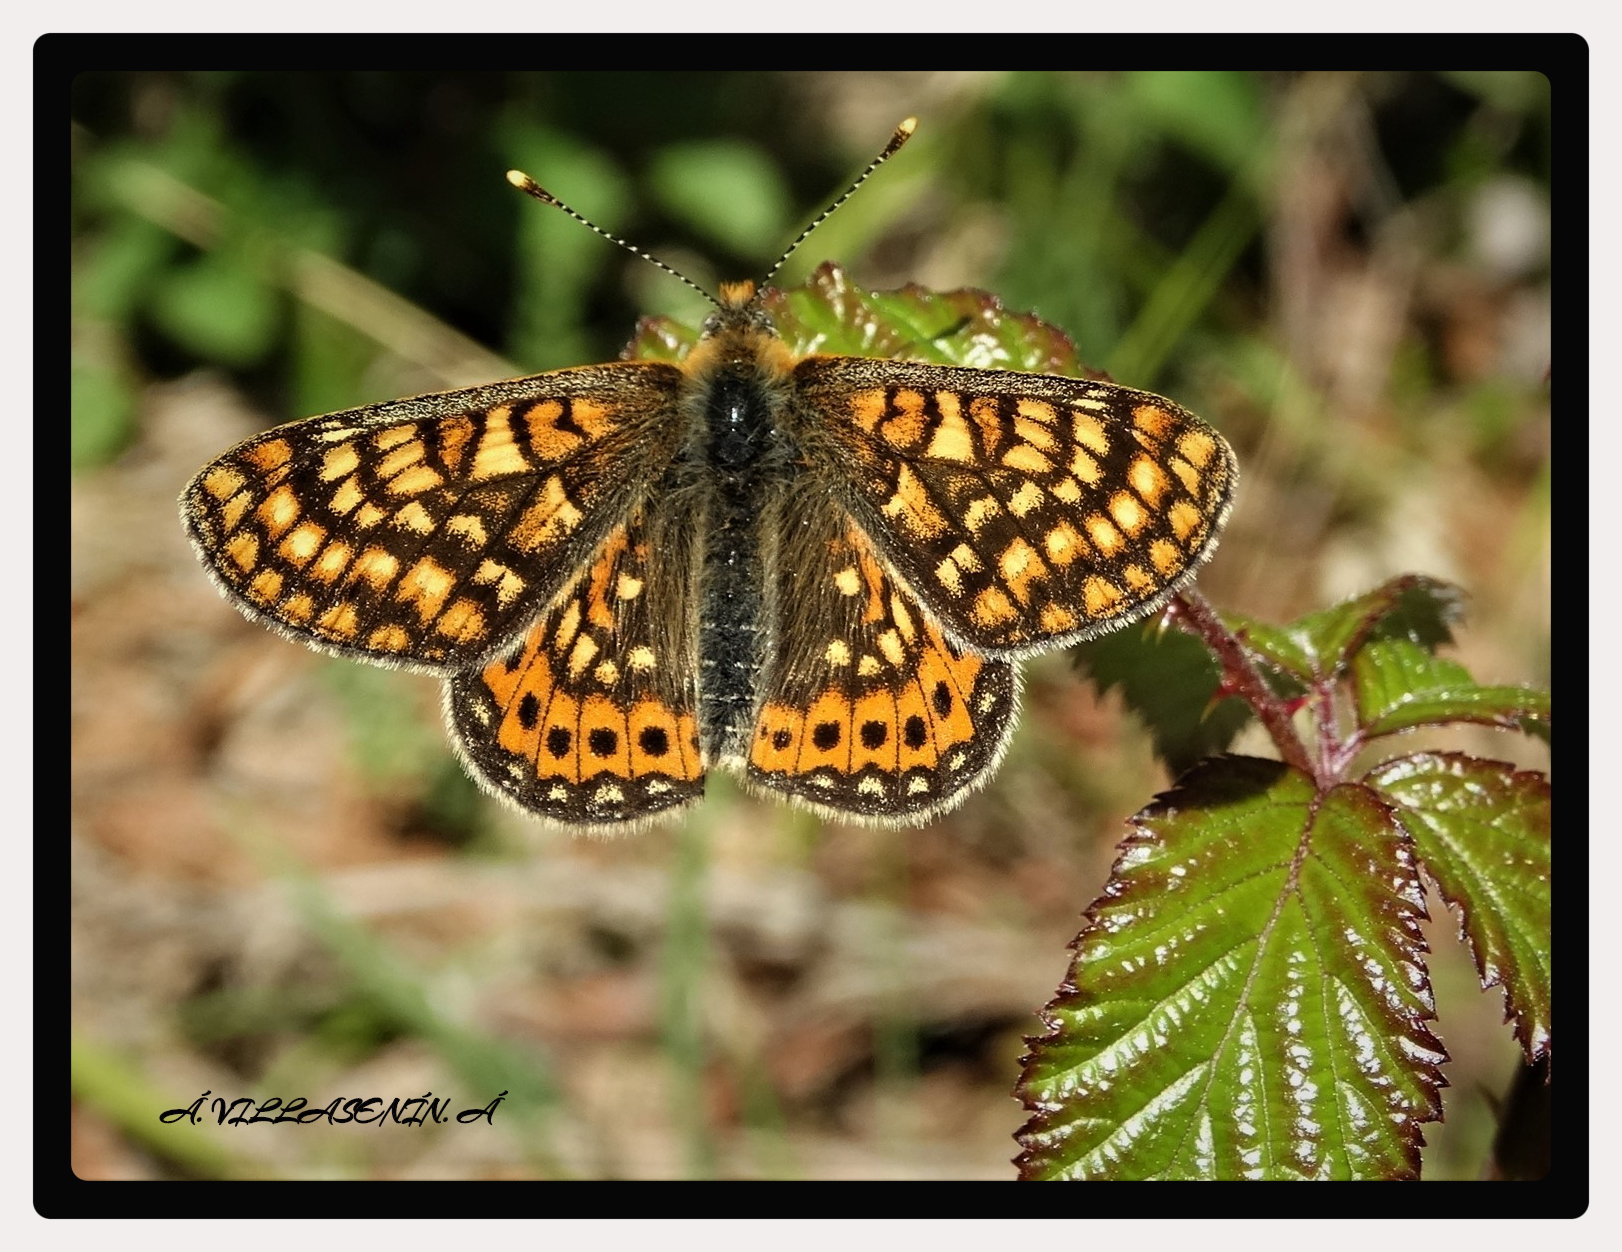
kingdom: Animalia
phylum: Arthropoda
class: Insecta
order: Lepidoptera
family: Nymphalidae
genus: Euphydryas
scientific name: Euphydryas aurinia
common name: Marsh fritillary
